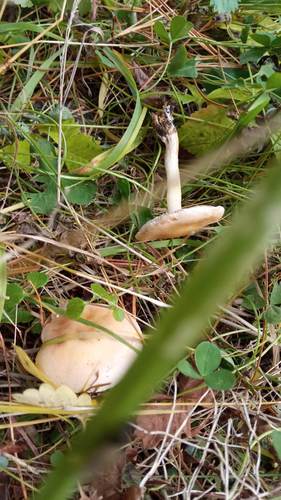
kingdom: Fungi
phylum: Basidiomycota
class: Agaricomycetes
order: Agaricales
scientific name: Agaricales
